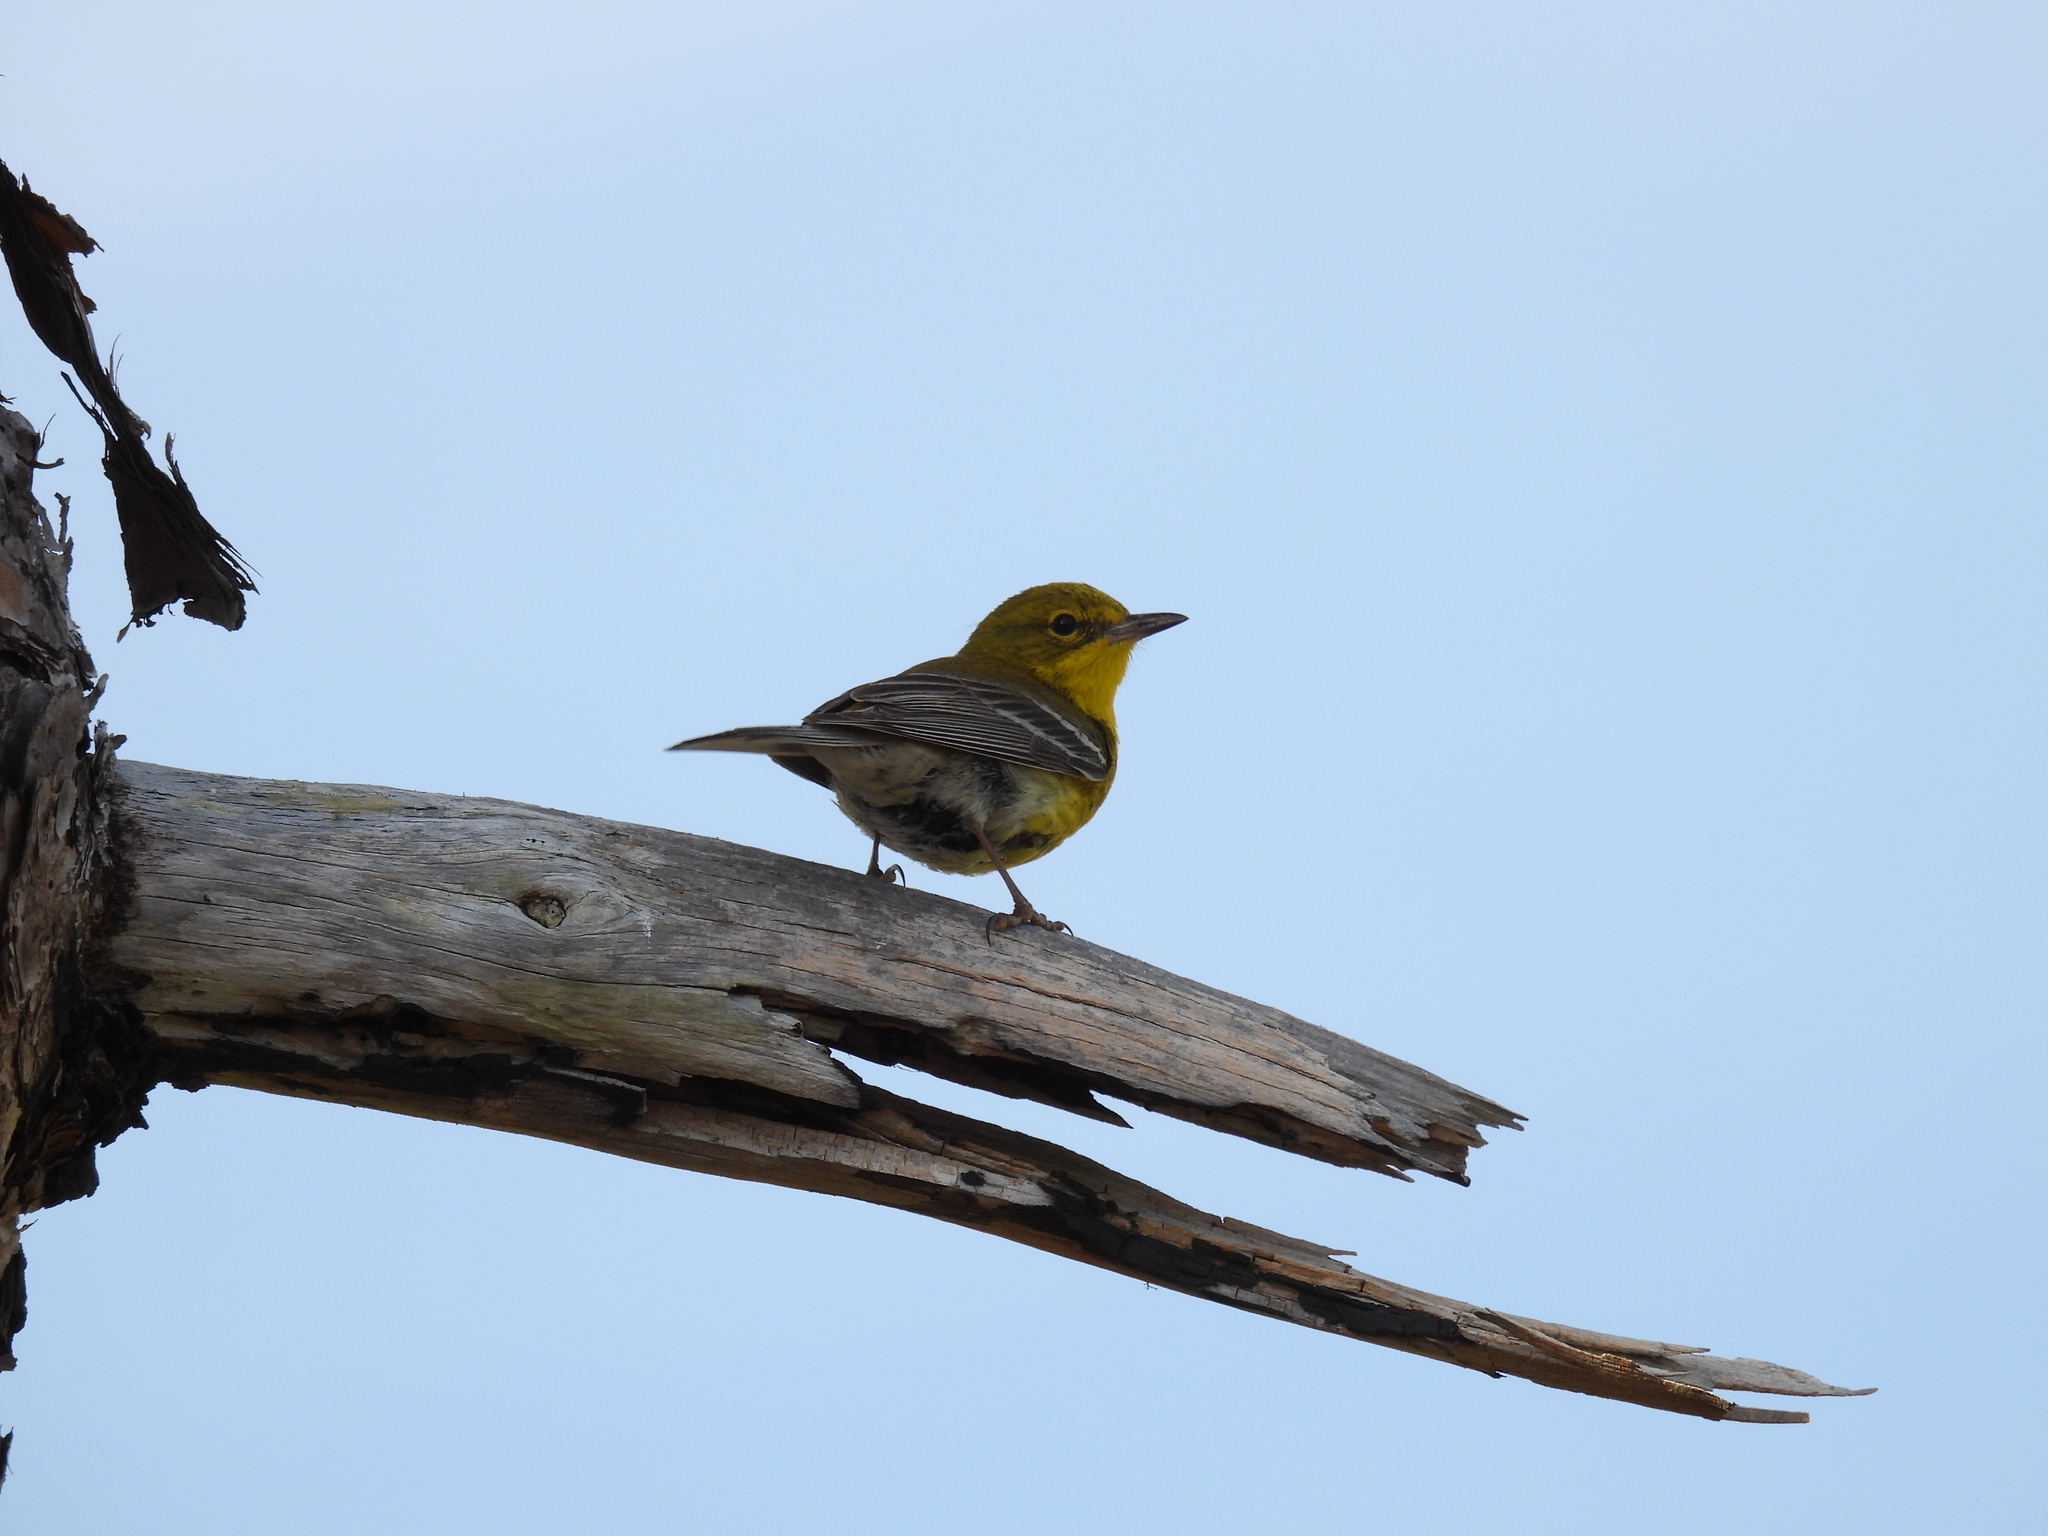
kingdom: Animalia
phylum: Chordata
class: Aves
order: Passeriformes
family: Parulidae
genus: Setophaga
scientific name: Setophaga pinus
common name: Pine warbler
